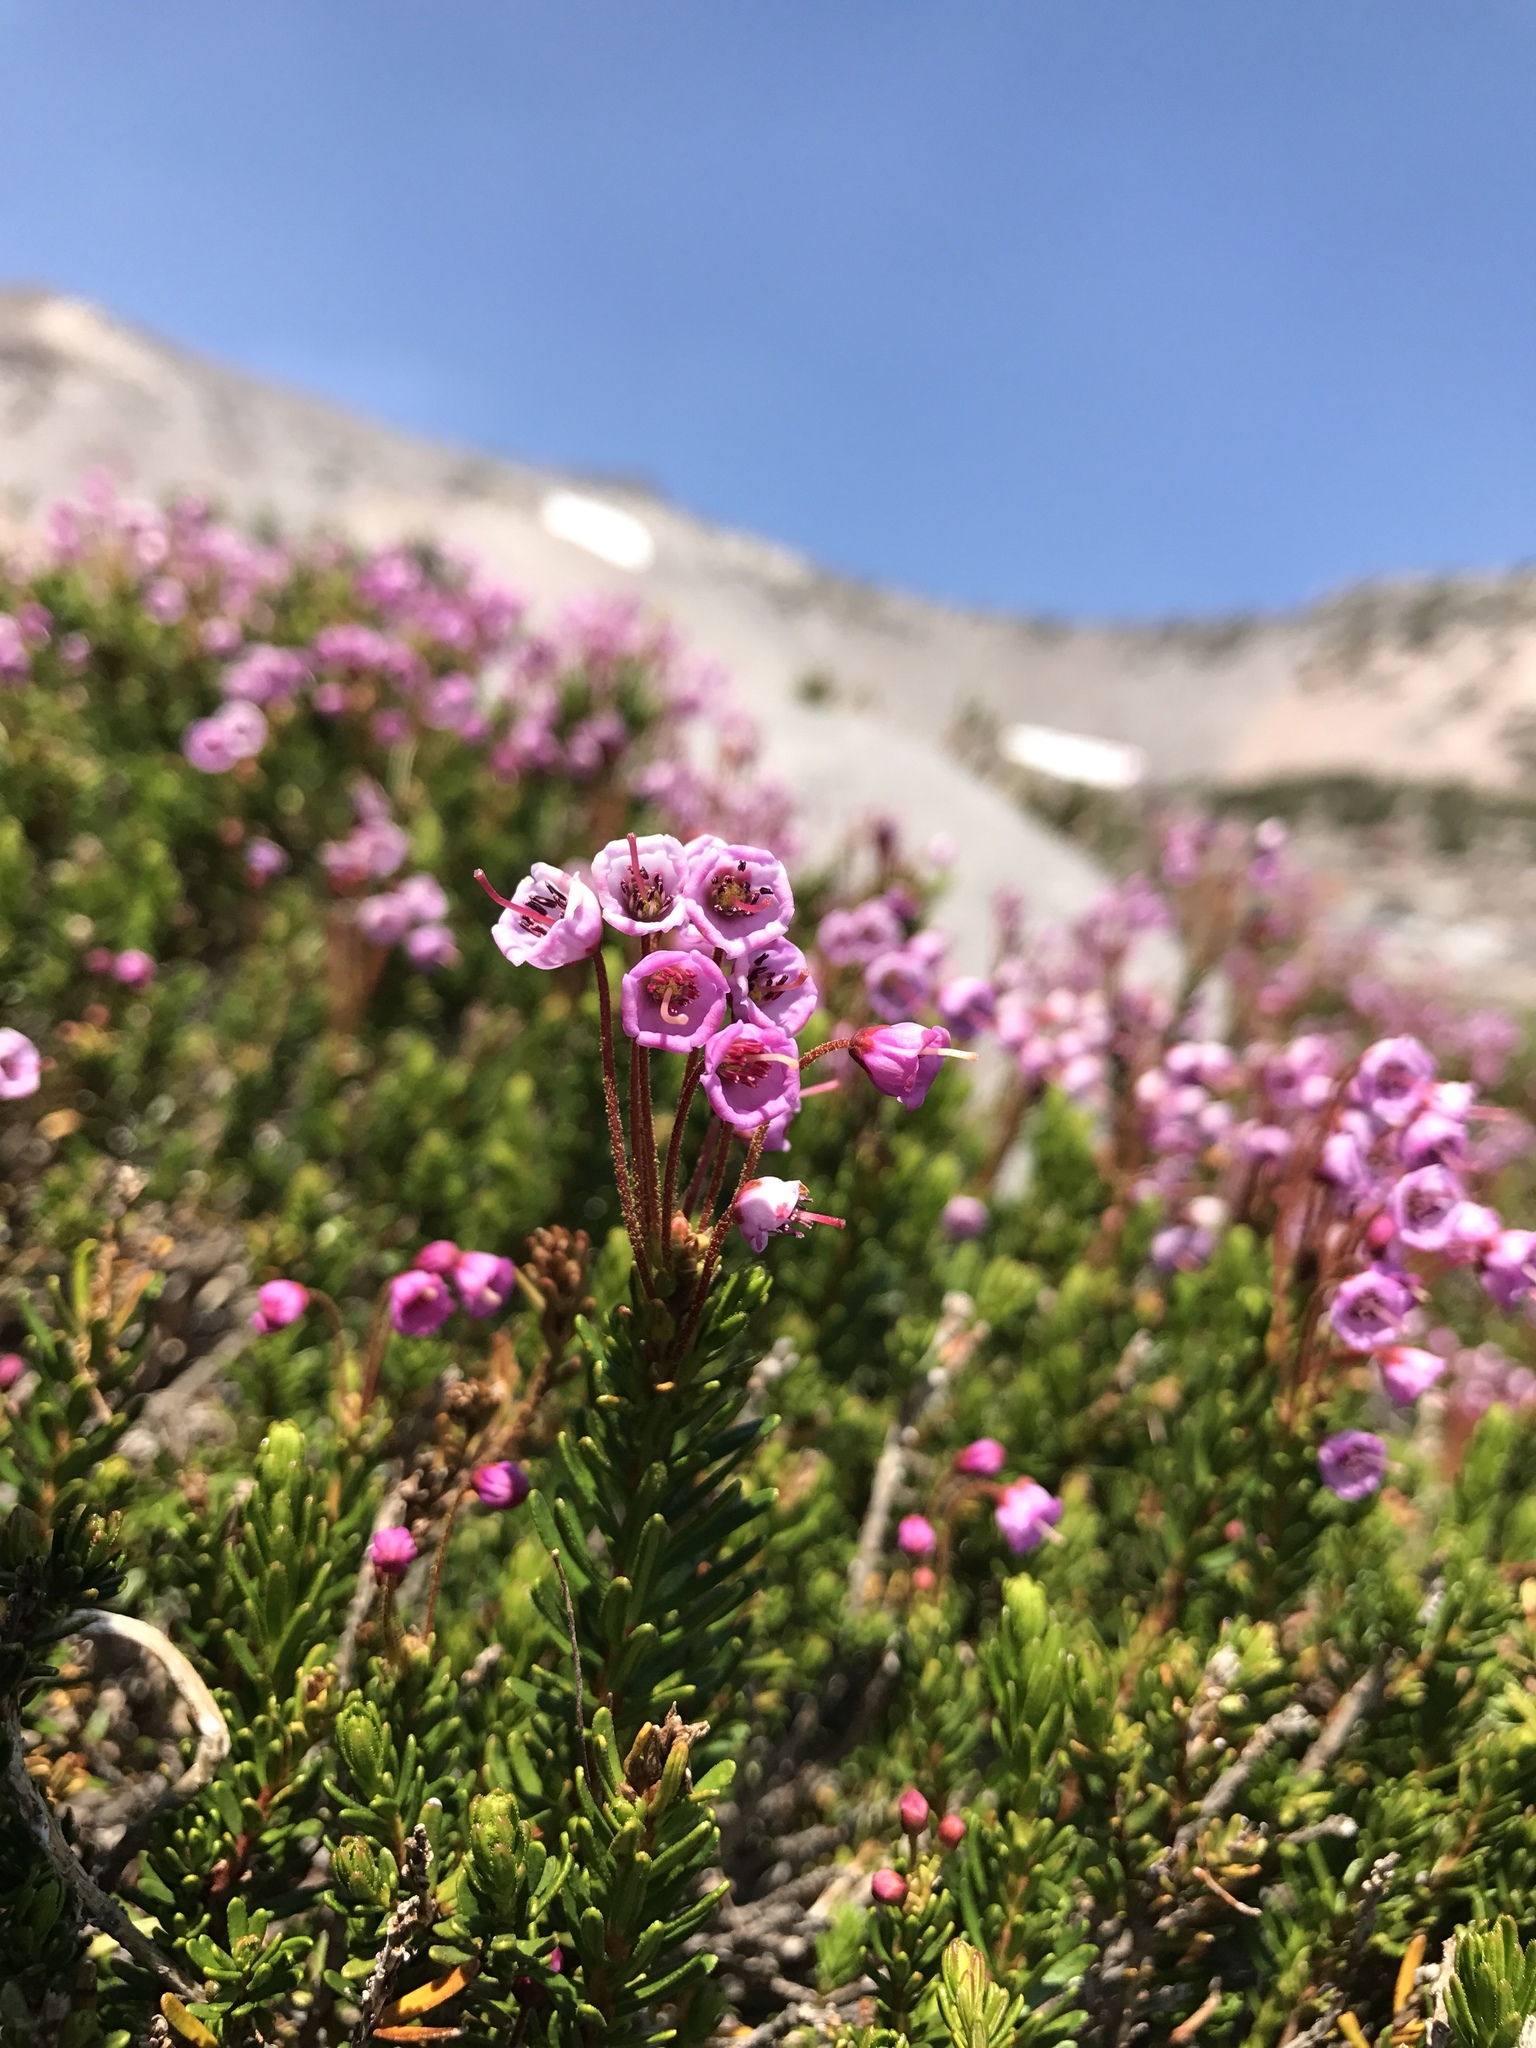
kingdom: Plantae
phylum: Tracheophyta
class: Magnoliopsida
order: Ericales
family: Ericaceae
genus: Phyllodoce
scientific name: Phyllodoce empetriformis
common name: Pink mountain heather
